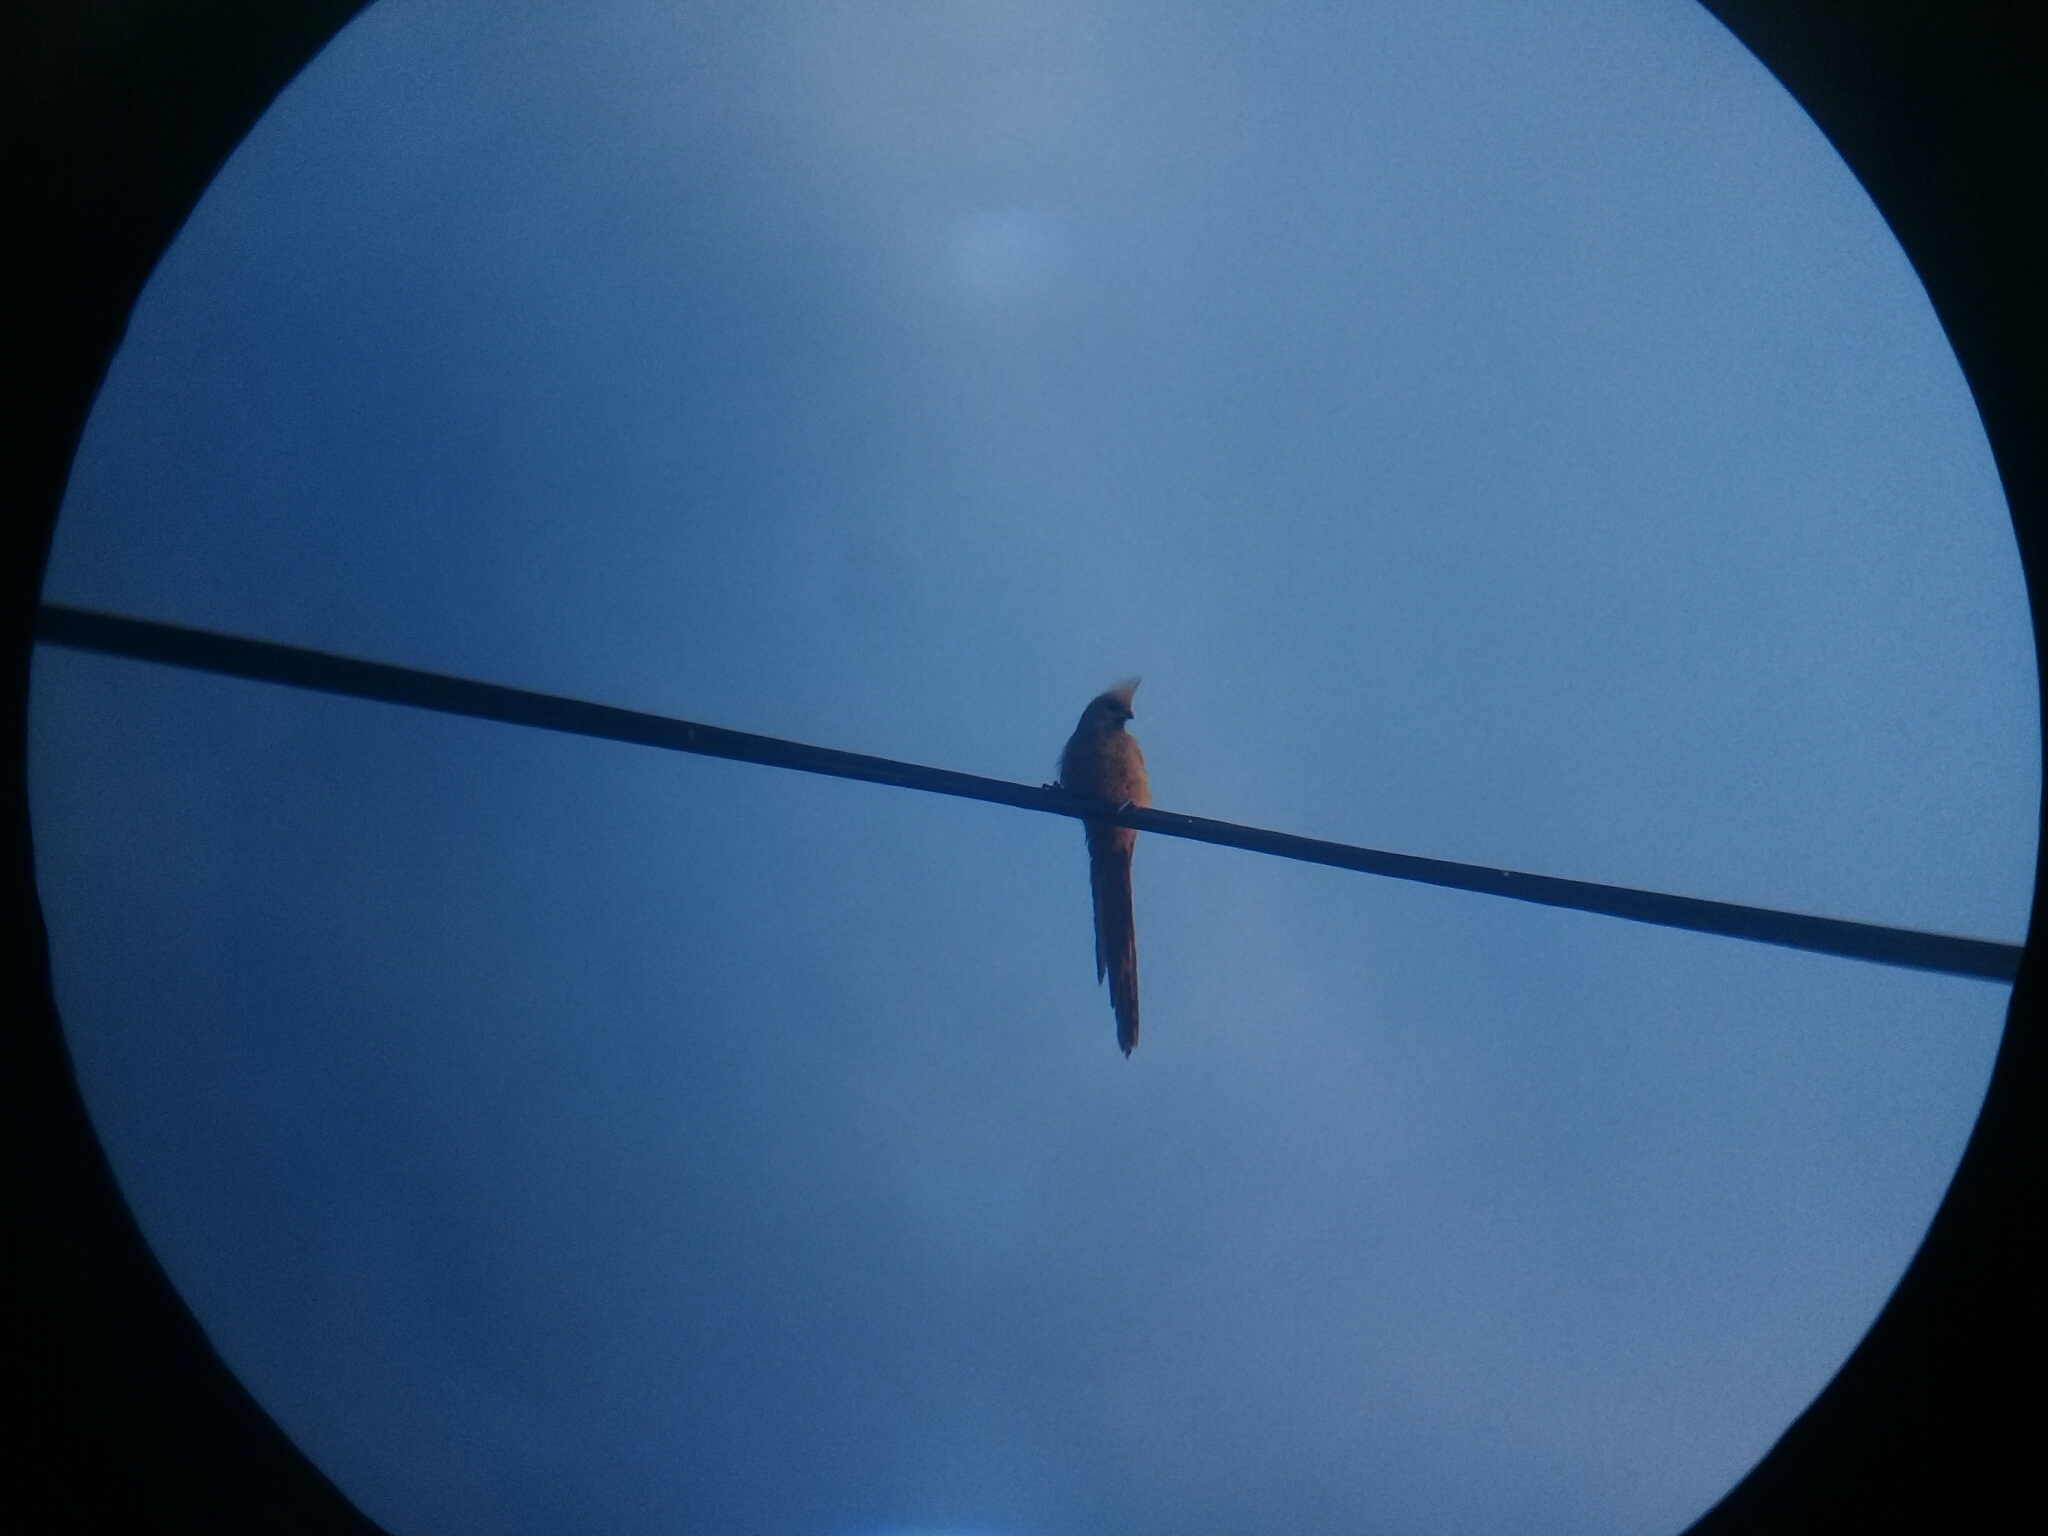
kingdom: Animalia
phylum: Chordata
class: Aves
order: Coliiformes
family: Coliidae
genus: Colius
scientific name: Colius striatus
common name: Speckled mousebird
